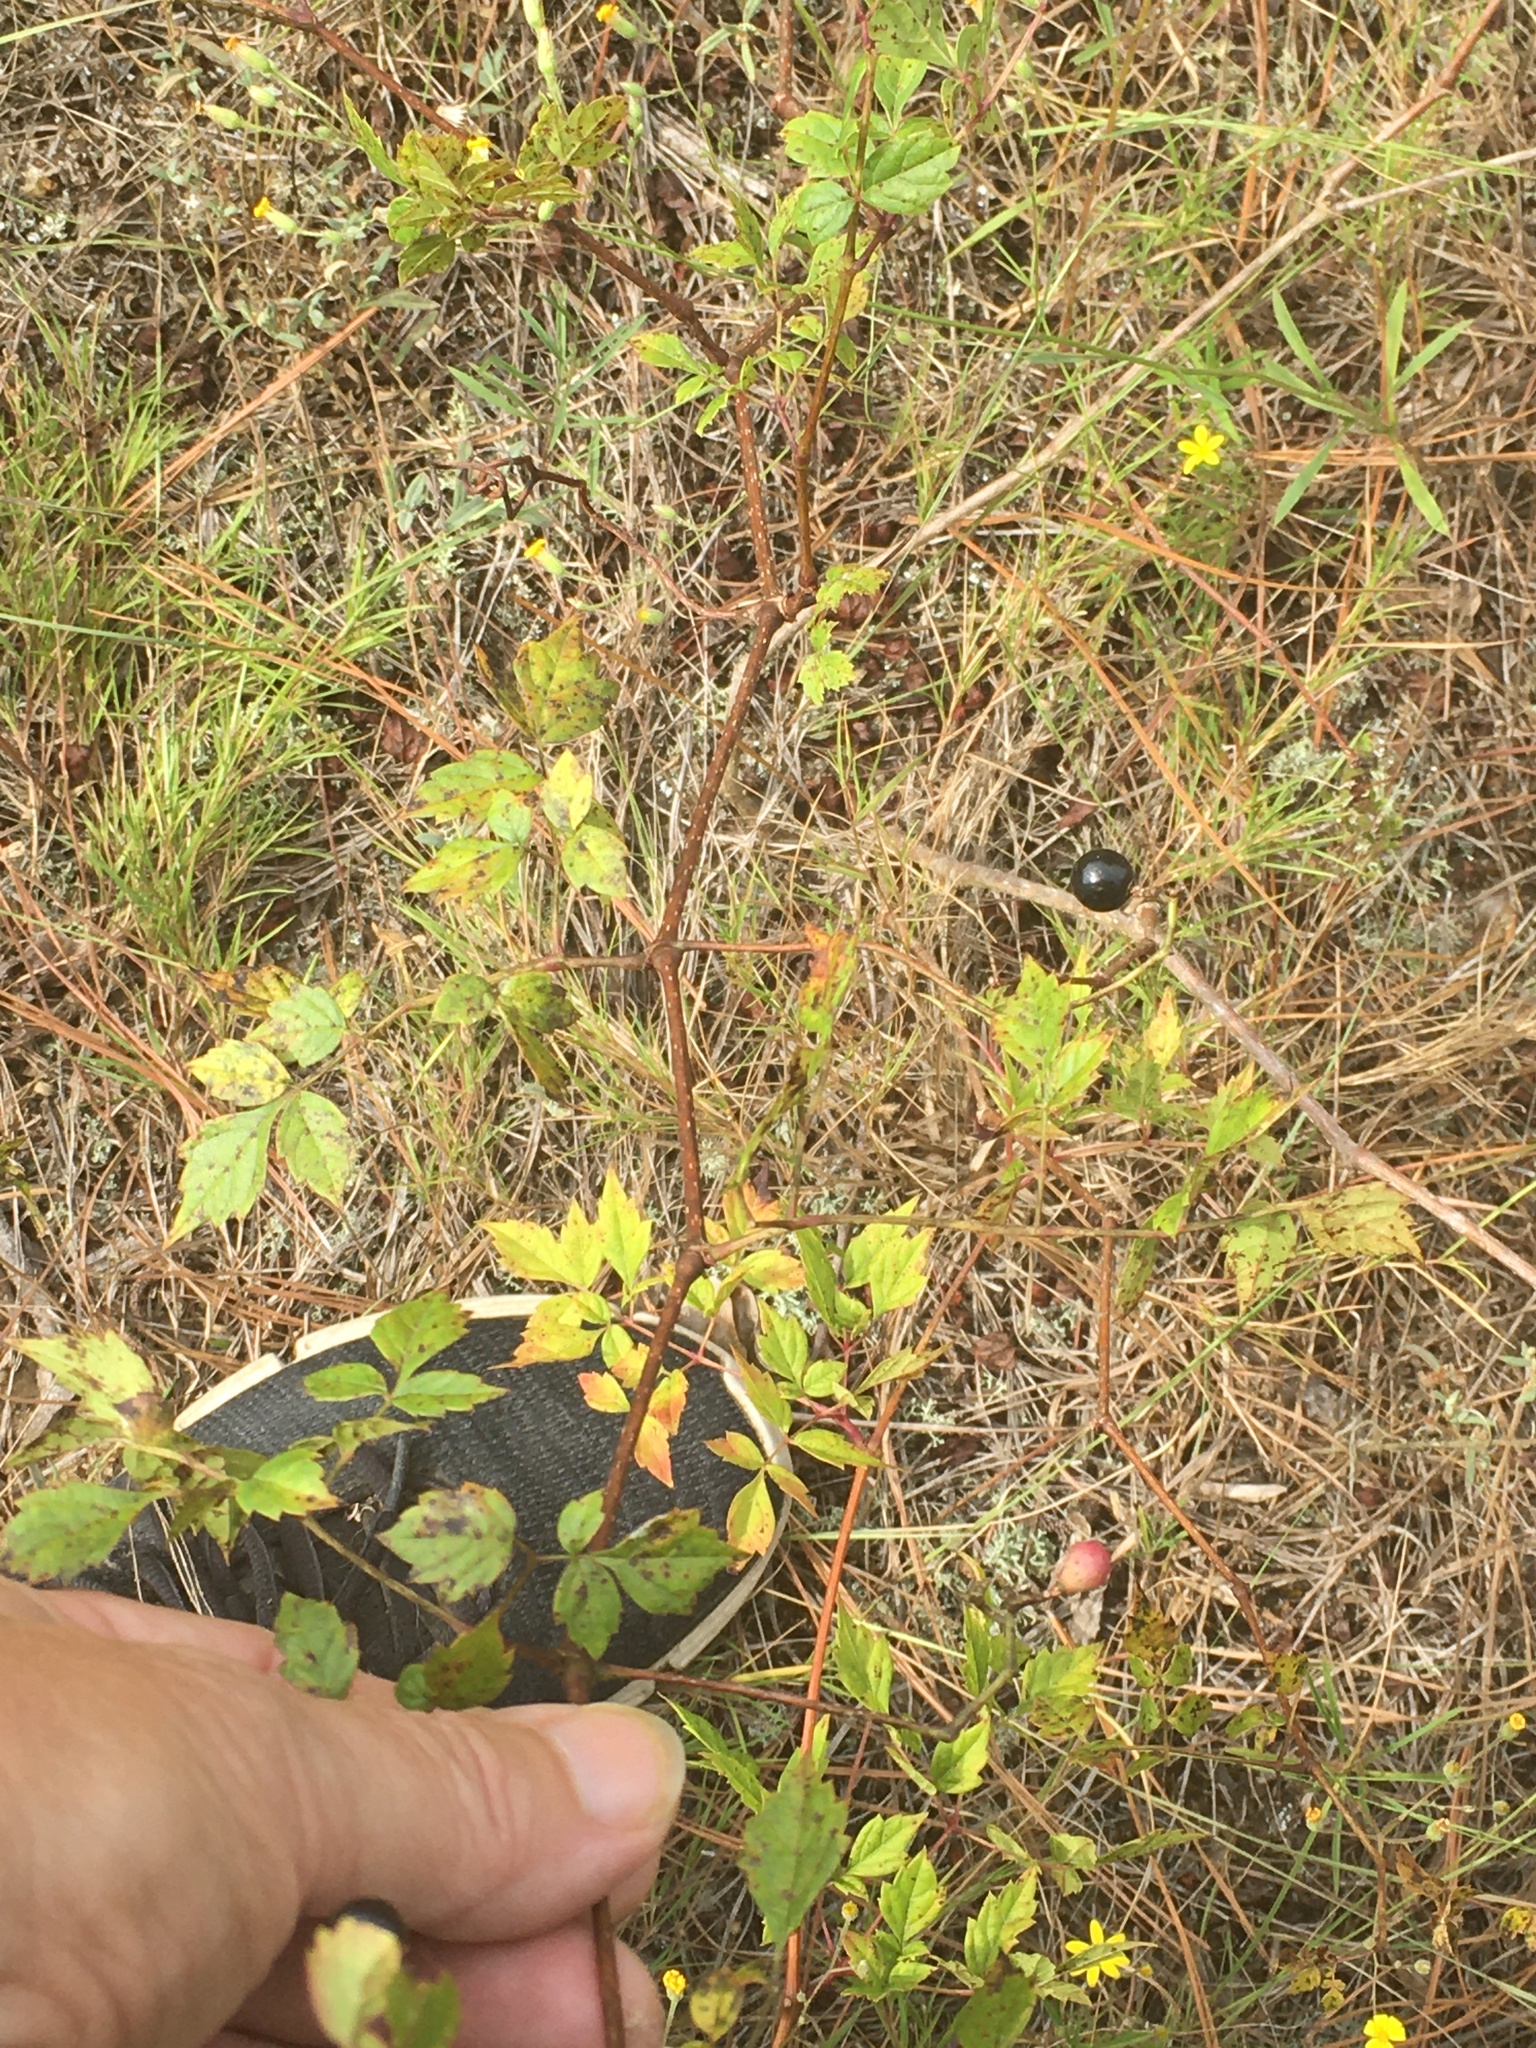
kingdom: Plantae
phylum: Tracheophyta
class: Magnoliopsida
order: Vitales
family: Vitaceae
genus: Nekemias
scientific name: Nekemias arborea
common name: Peppervine
